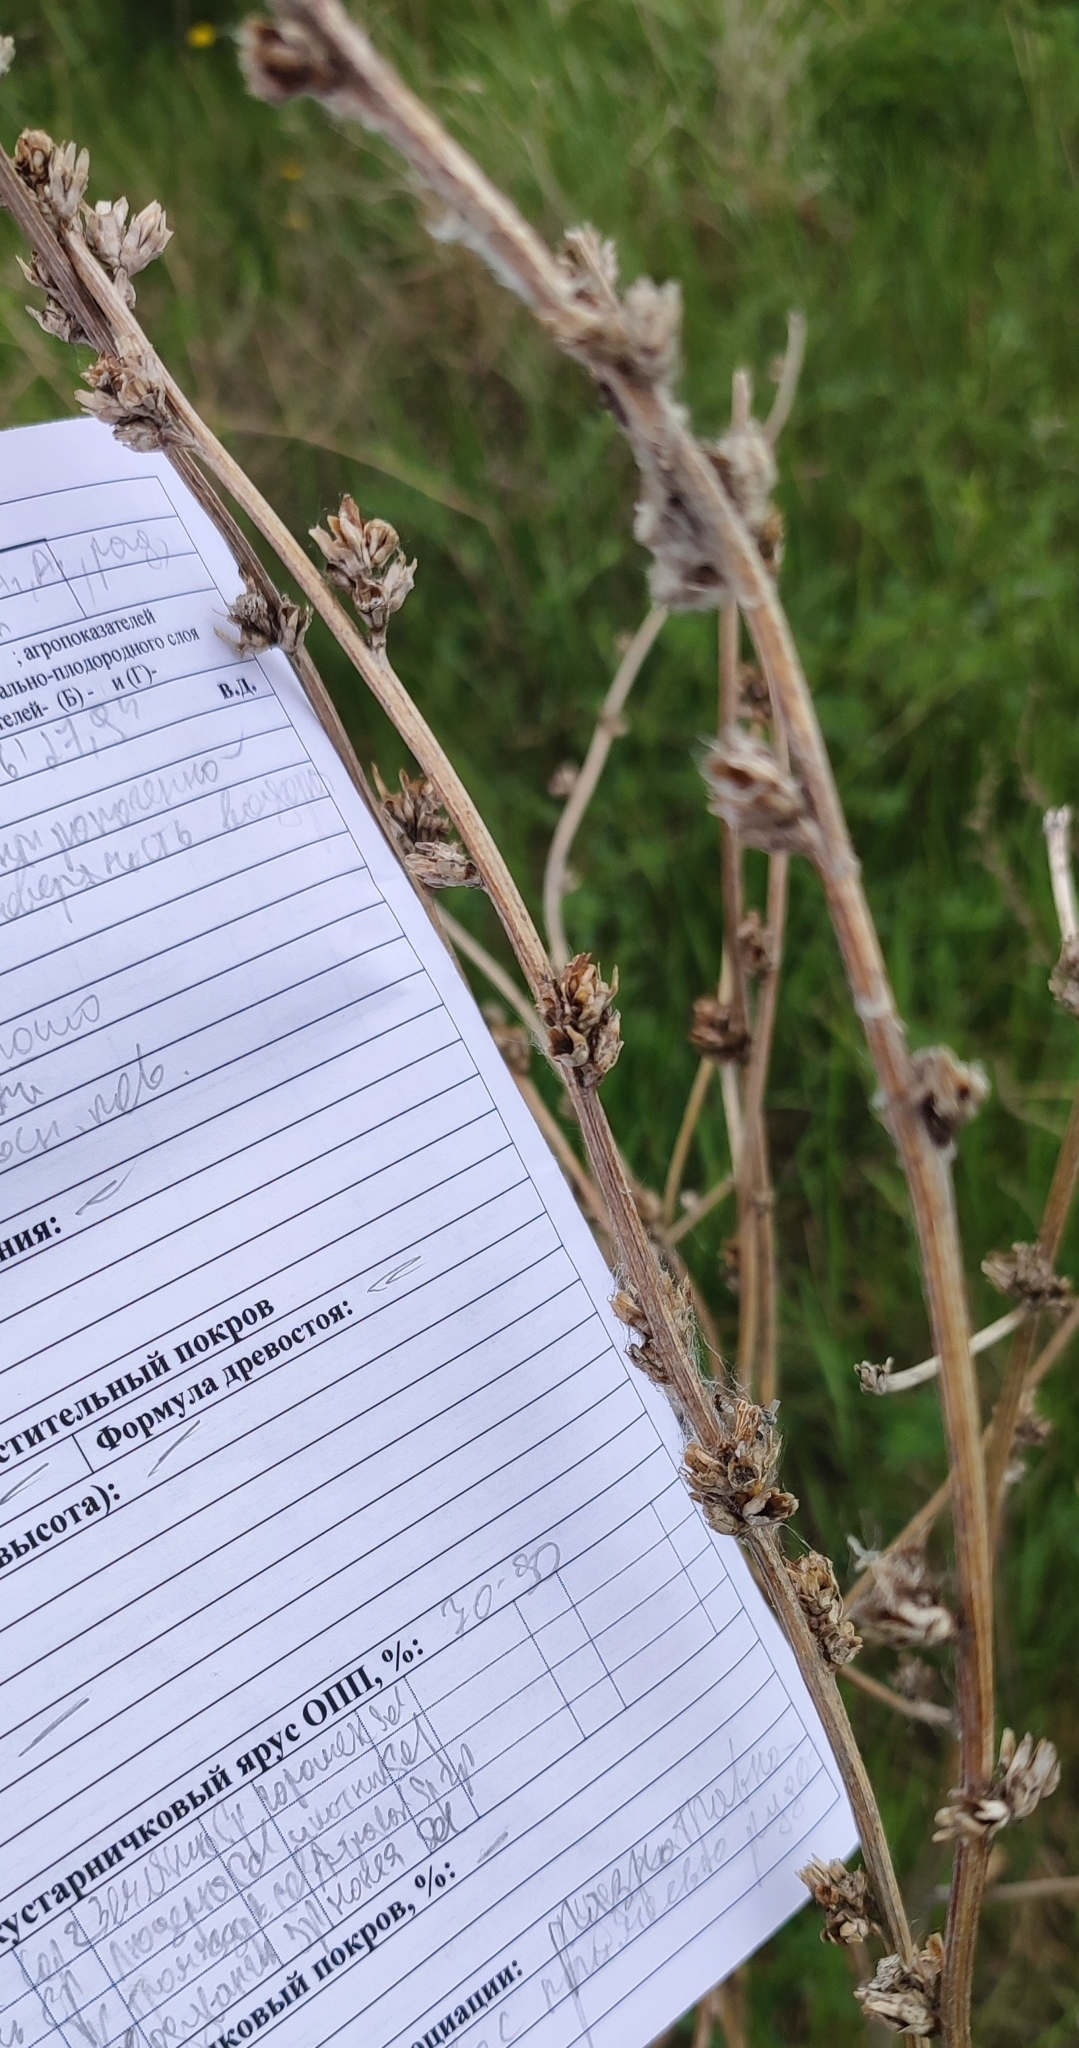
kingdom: Plantae
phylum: Tracheophyta
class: Magnoliopsida
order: Asterales
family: Asteraceae
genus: Cichorium
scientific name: Cichorium intybus
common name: Chicory
